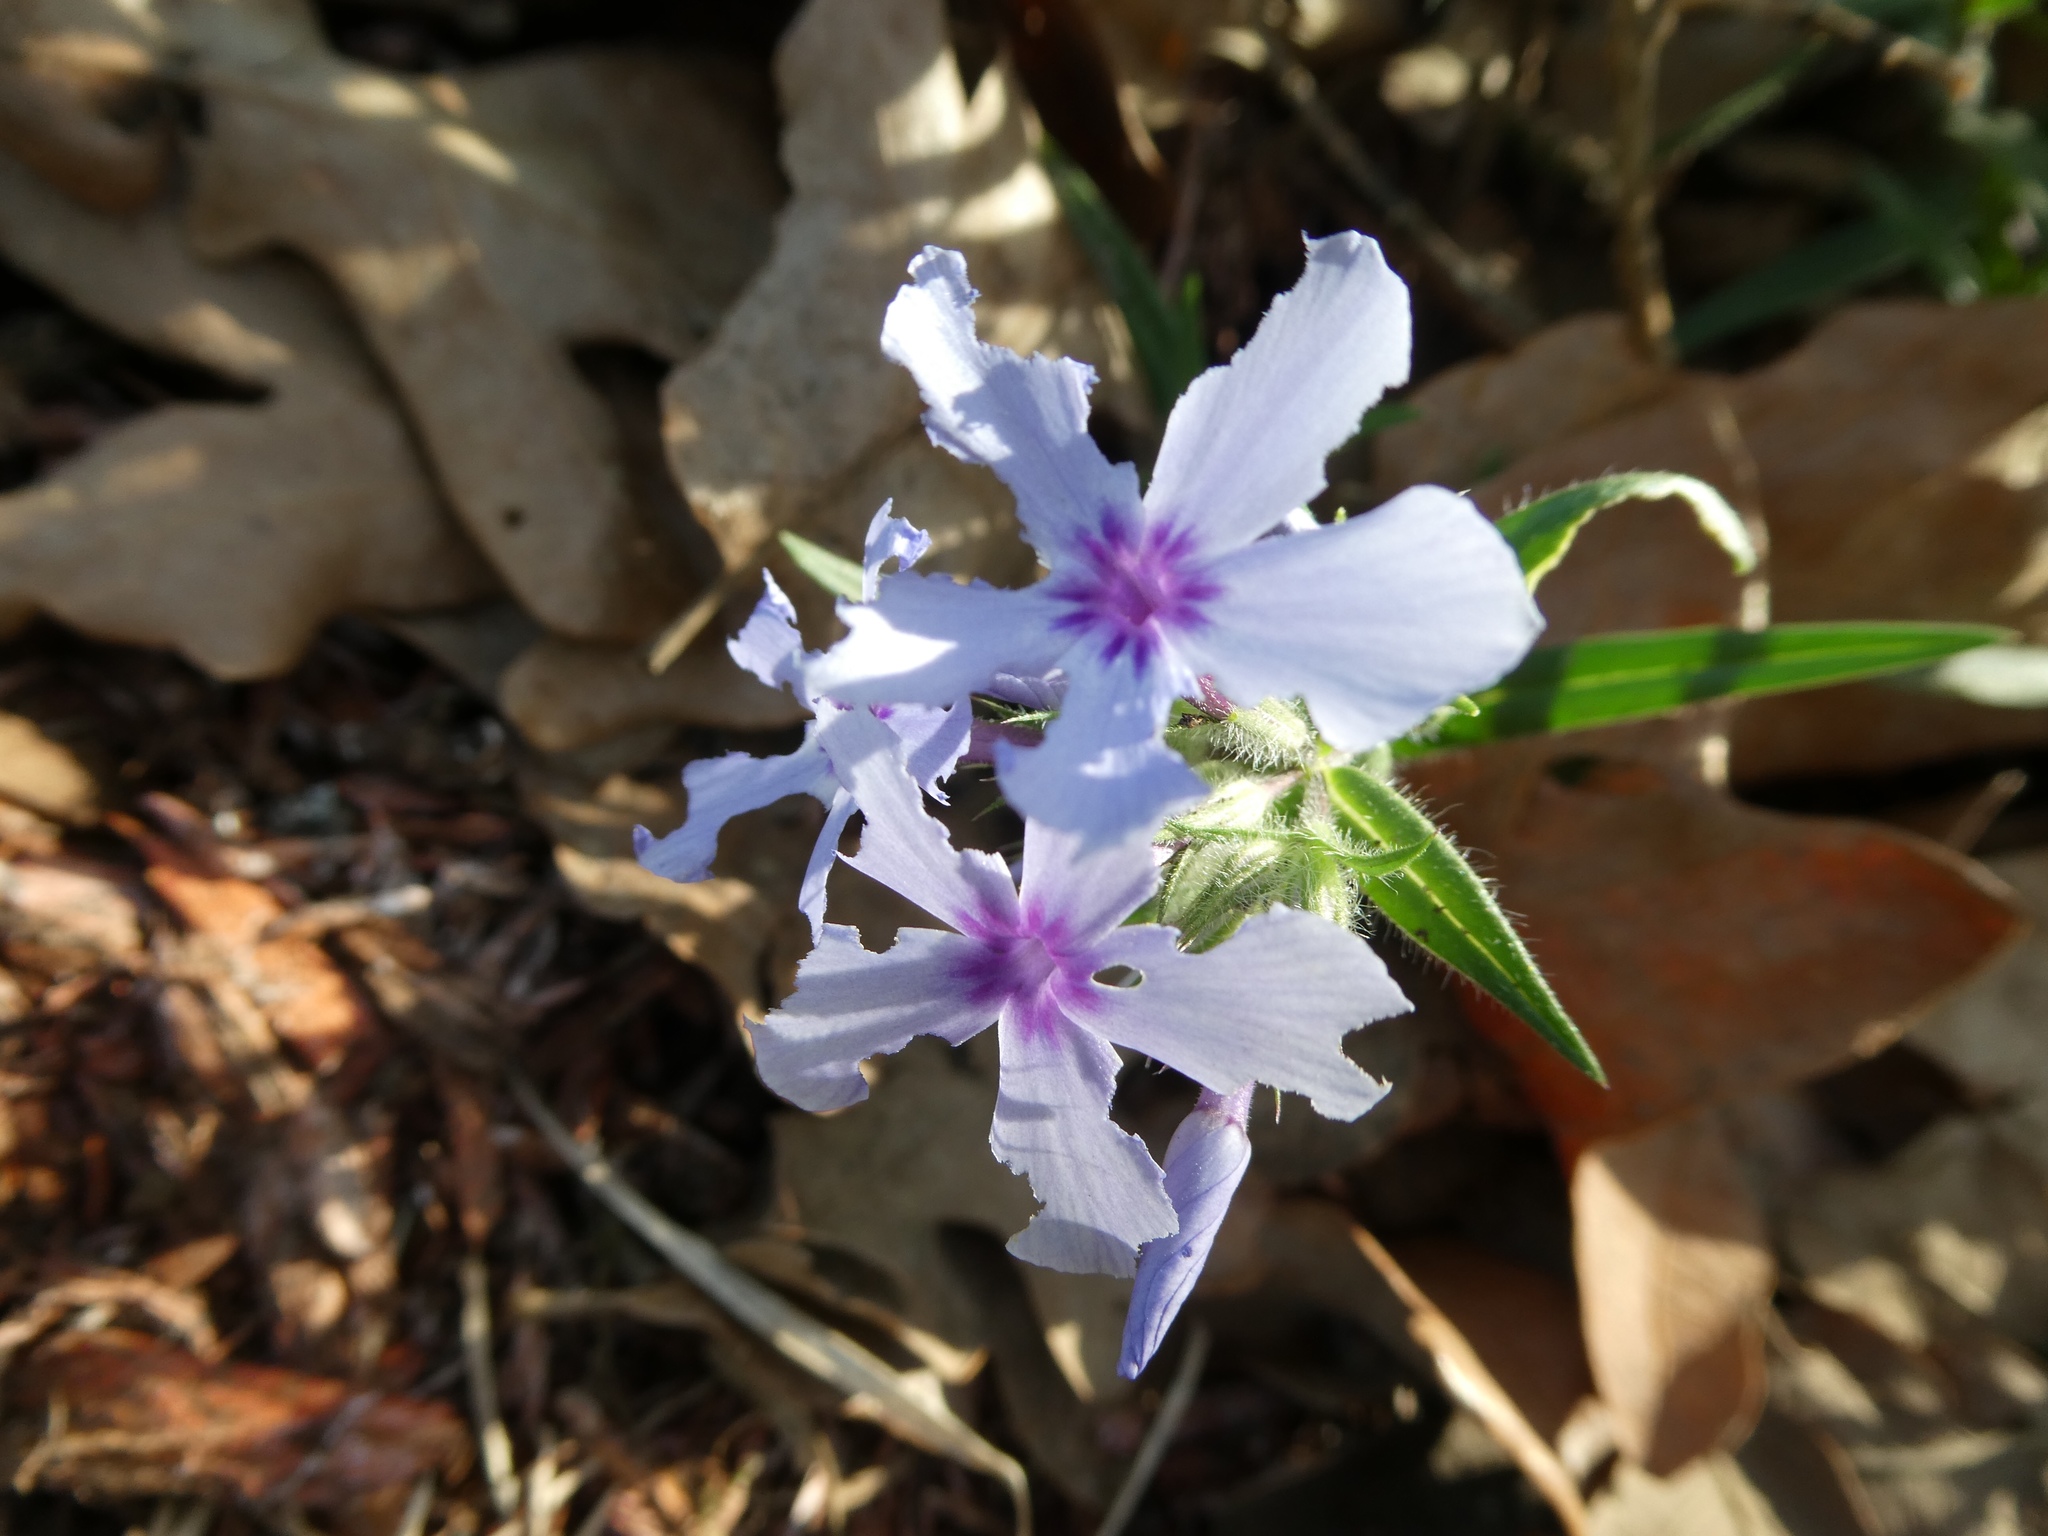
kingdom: Plantae
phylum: Tracheophyta
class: Magnoliopsida
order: Ericales
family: Polemoniaceae
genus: Phlox
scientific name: Phlox pilosa
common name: Prairie phlox
